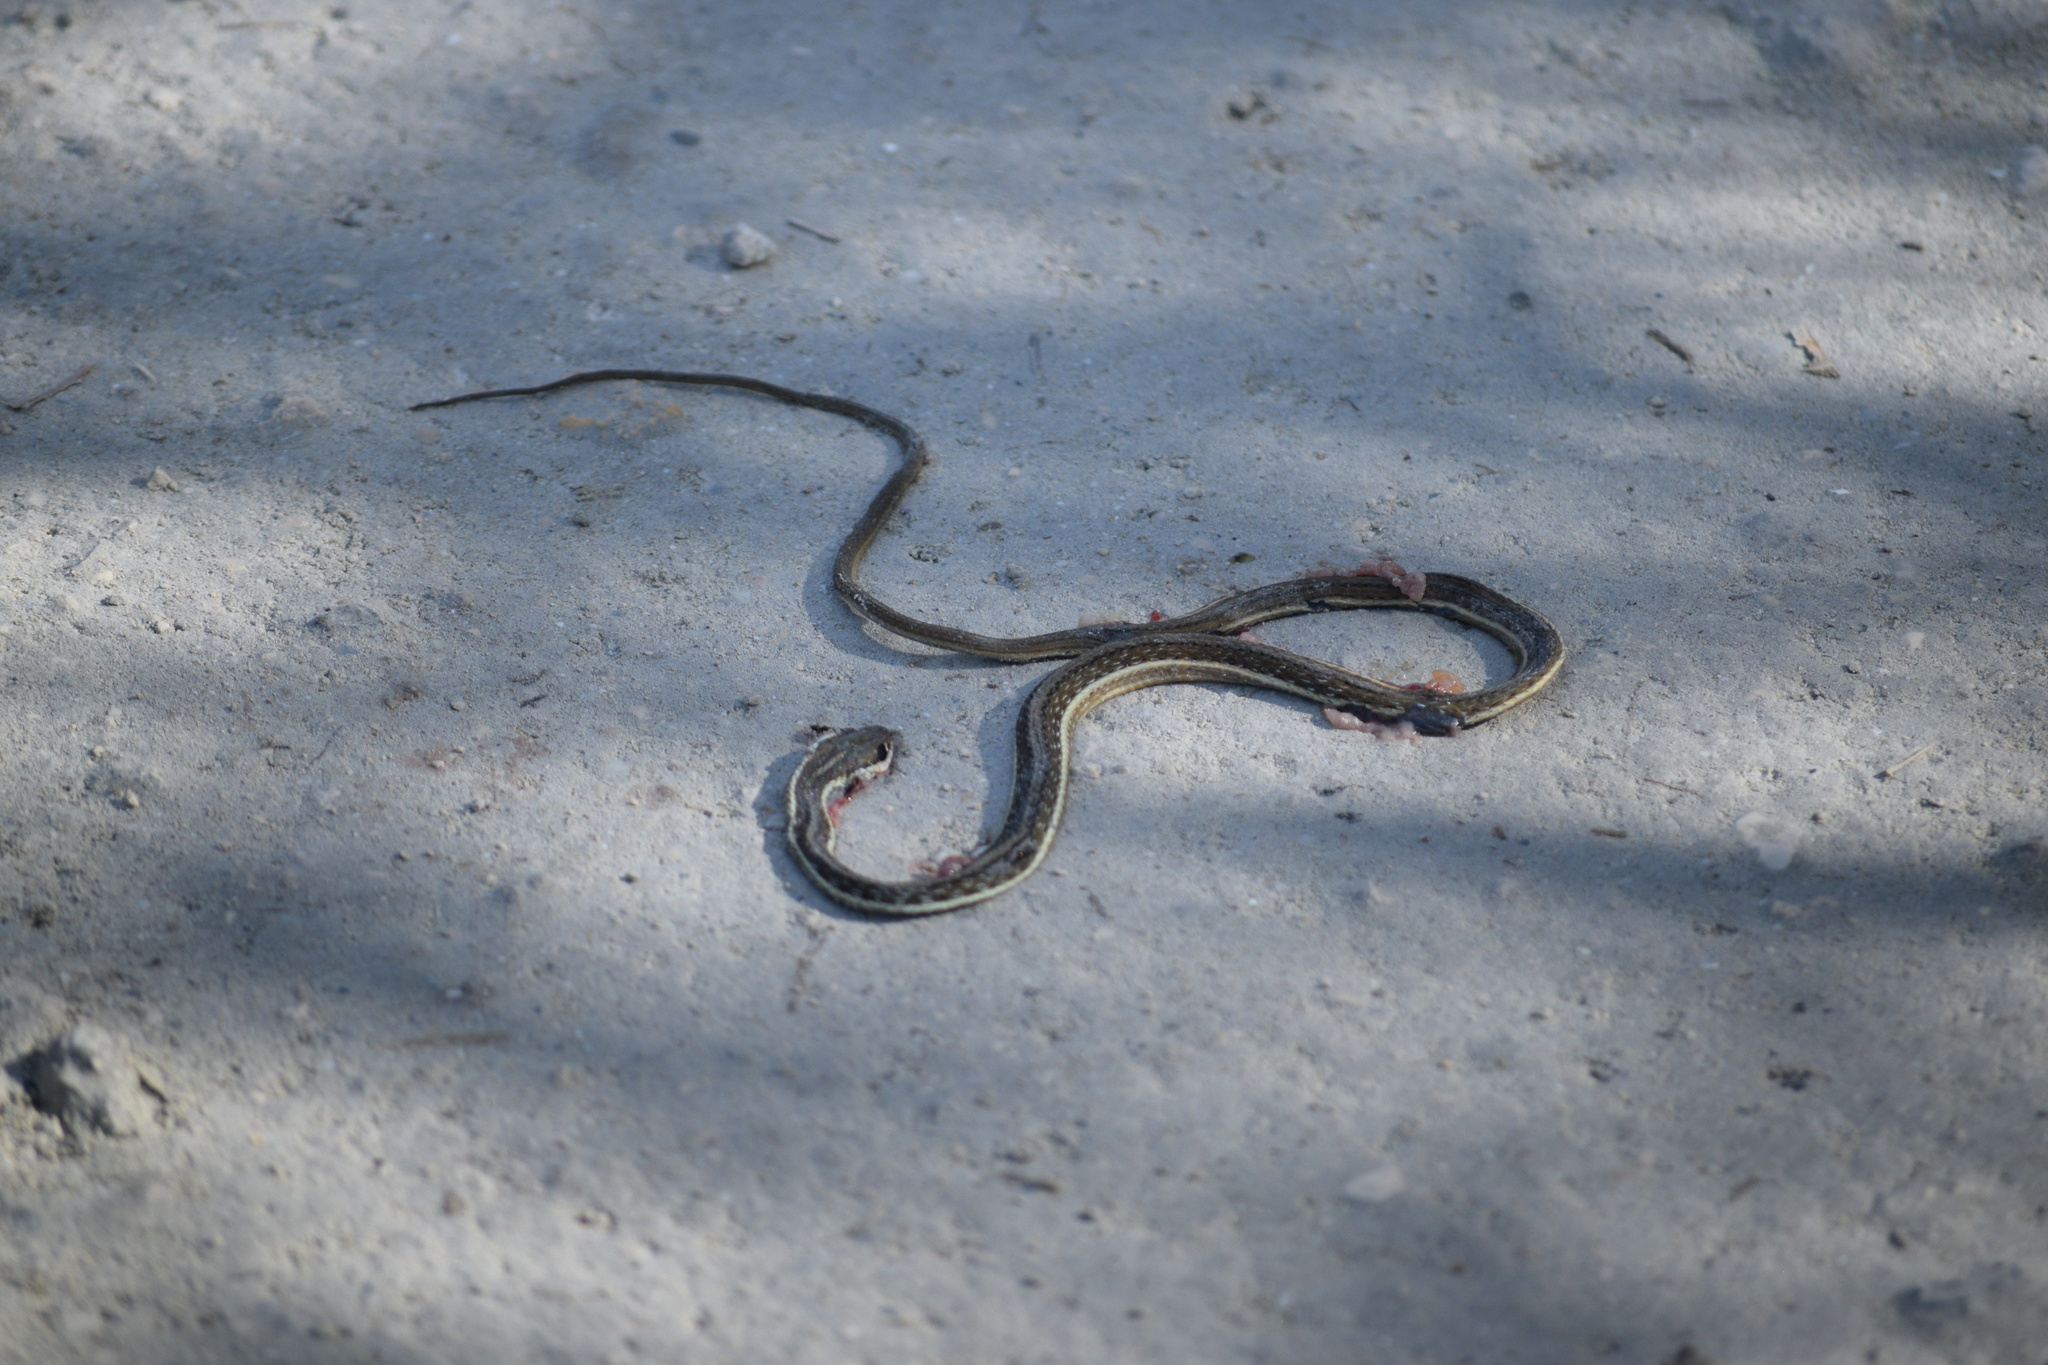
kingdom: Animalia
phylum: Chordata
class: Squamata
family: Colubridae
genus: Thamnophis
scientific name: Thamnophis saurita
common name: Eastern ribbonsnake
